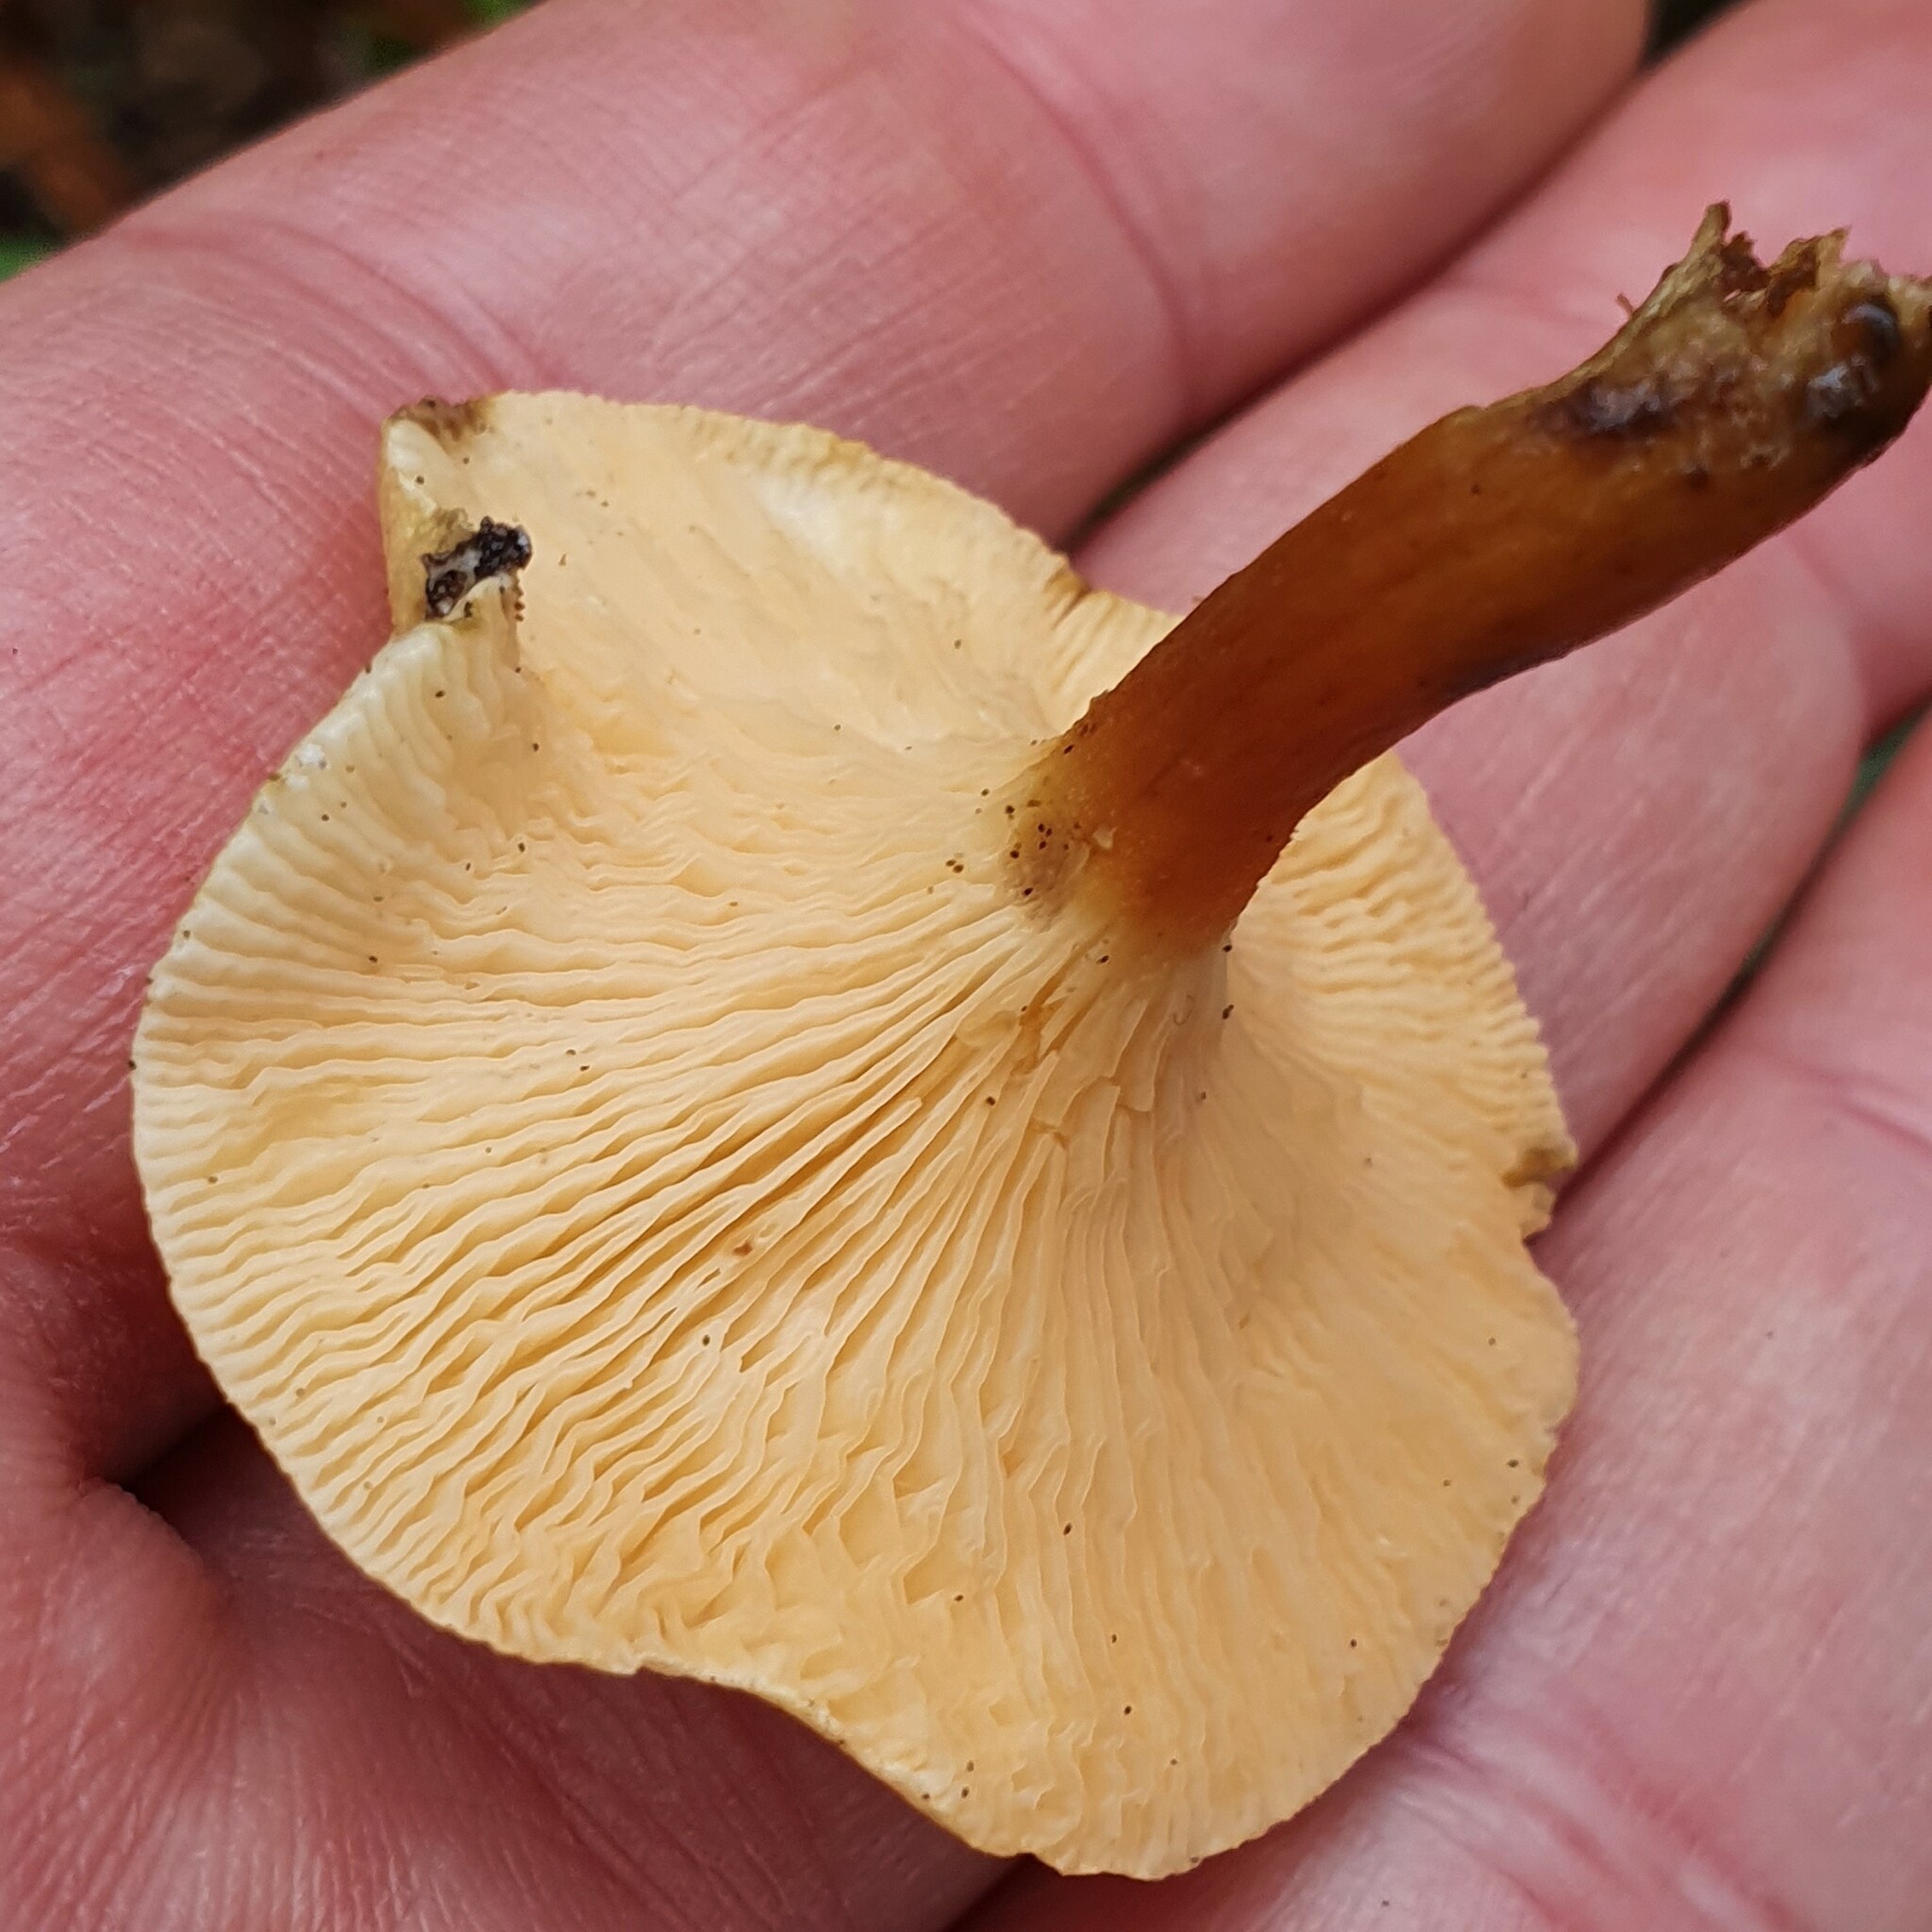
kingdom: Fungi
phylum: Basidiomycota
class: Agaricomycetes
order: Boletales
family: Hygrophoropsidaceae
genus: Hygrophoropsis
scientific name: Hygrophoropsis aurantiaca
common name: False chanterelle
